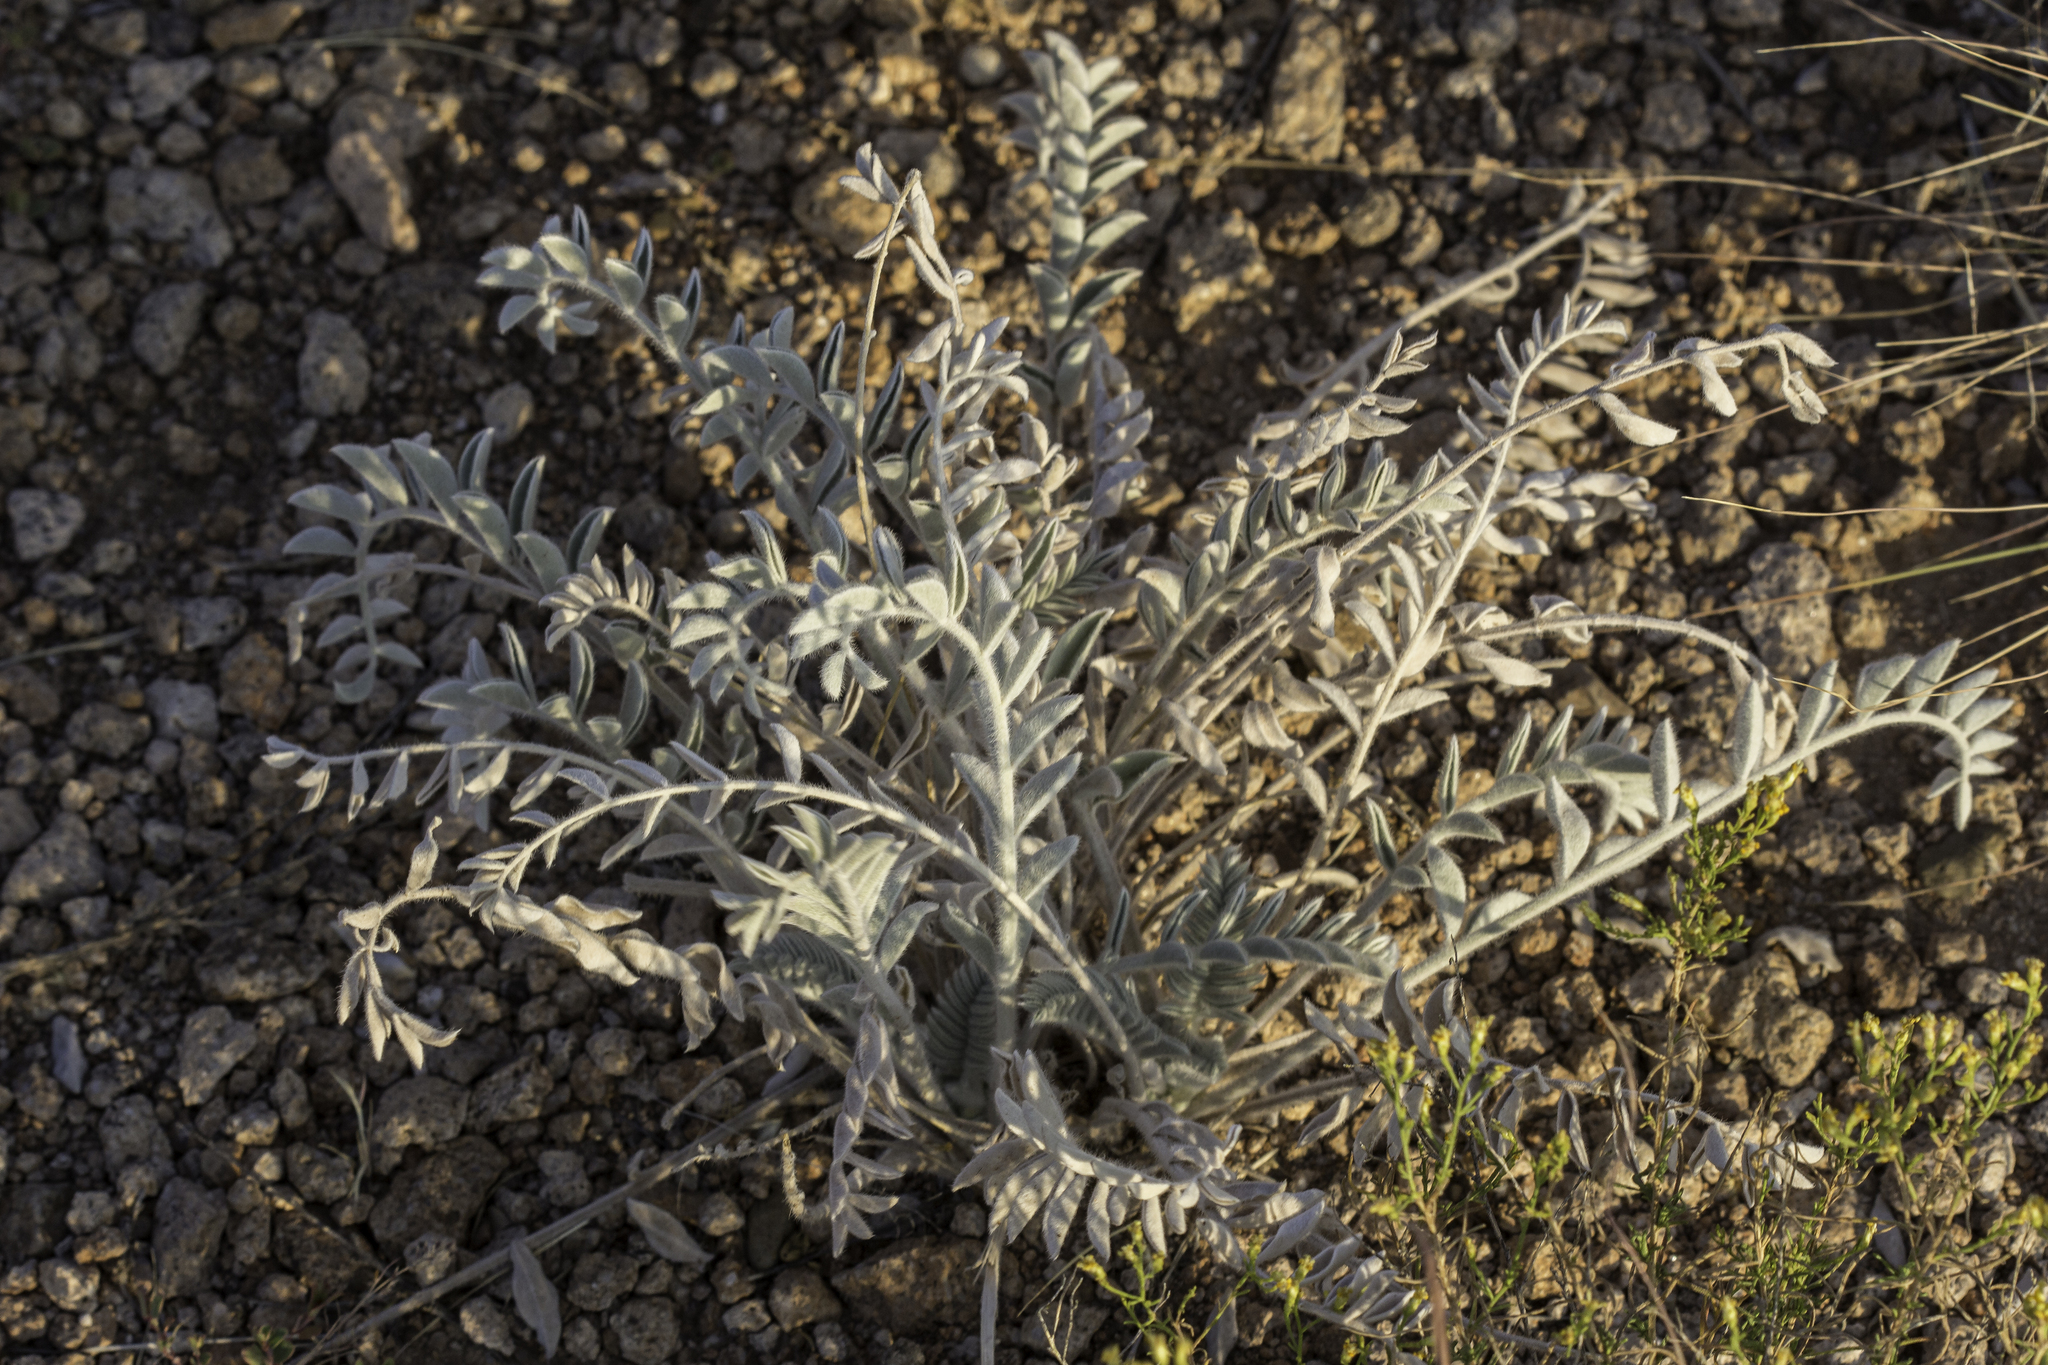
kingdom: Plantae
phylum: Tracheophyta
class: Magnoliopsida
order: Fabales
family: Fabaceae
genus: Astragalus
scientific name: Astragalus mollissimus
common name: Woolly locoweed
